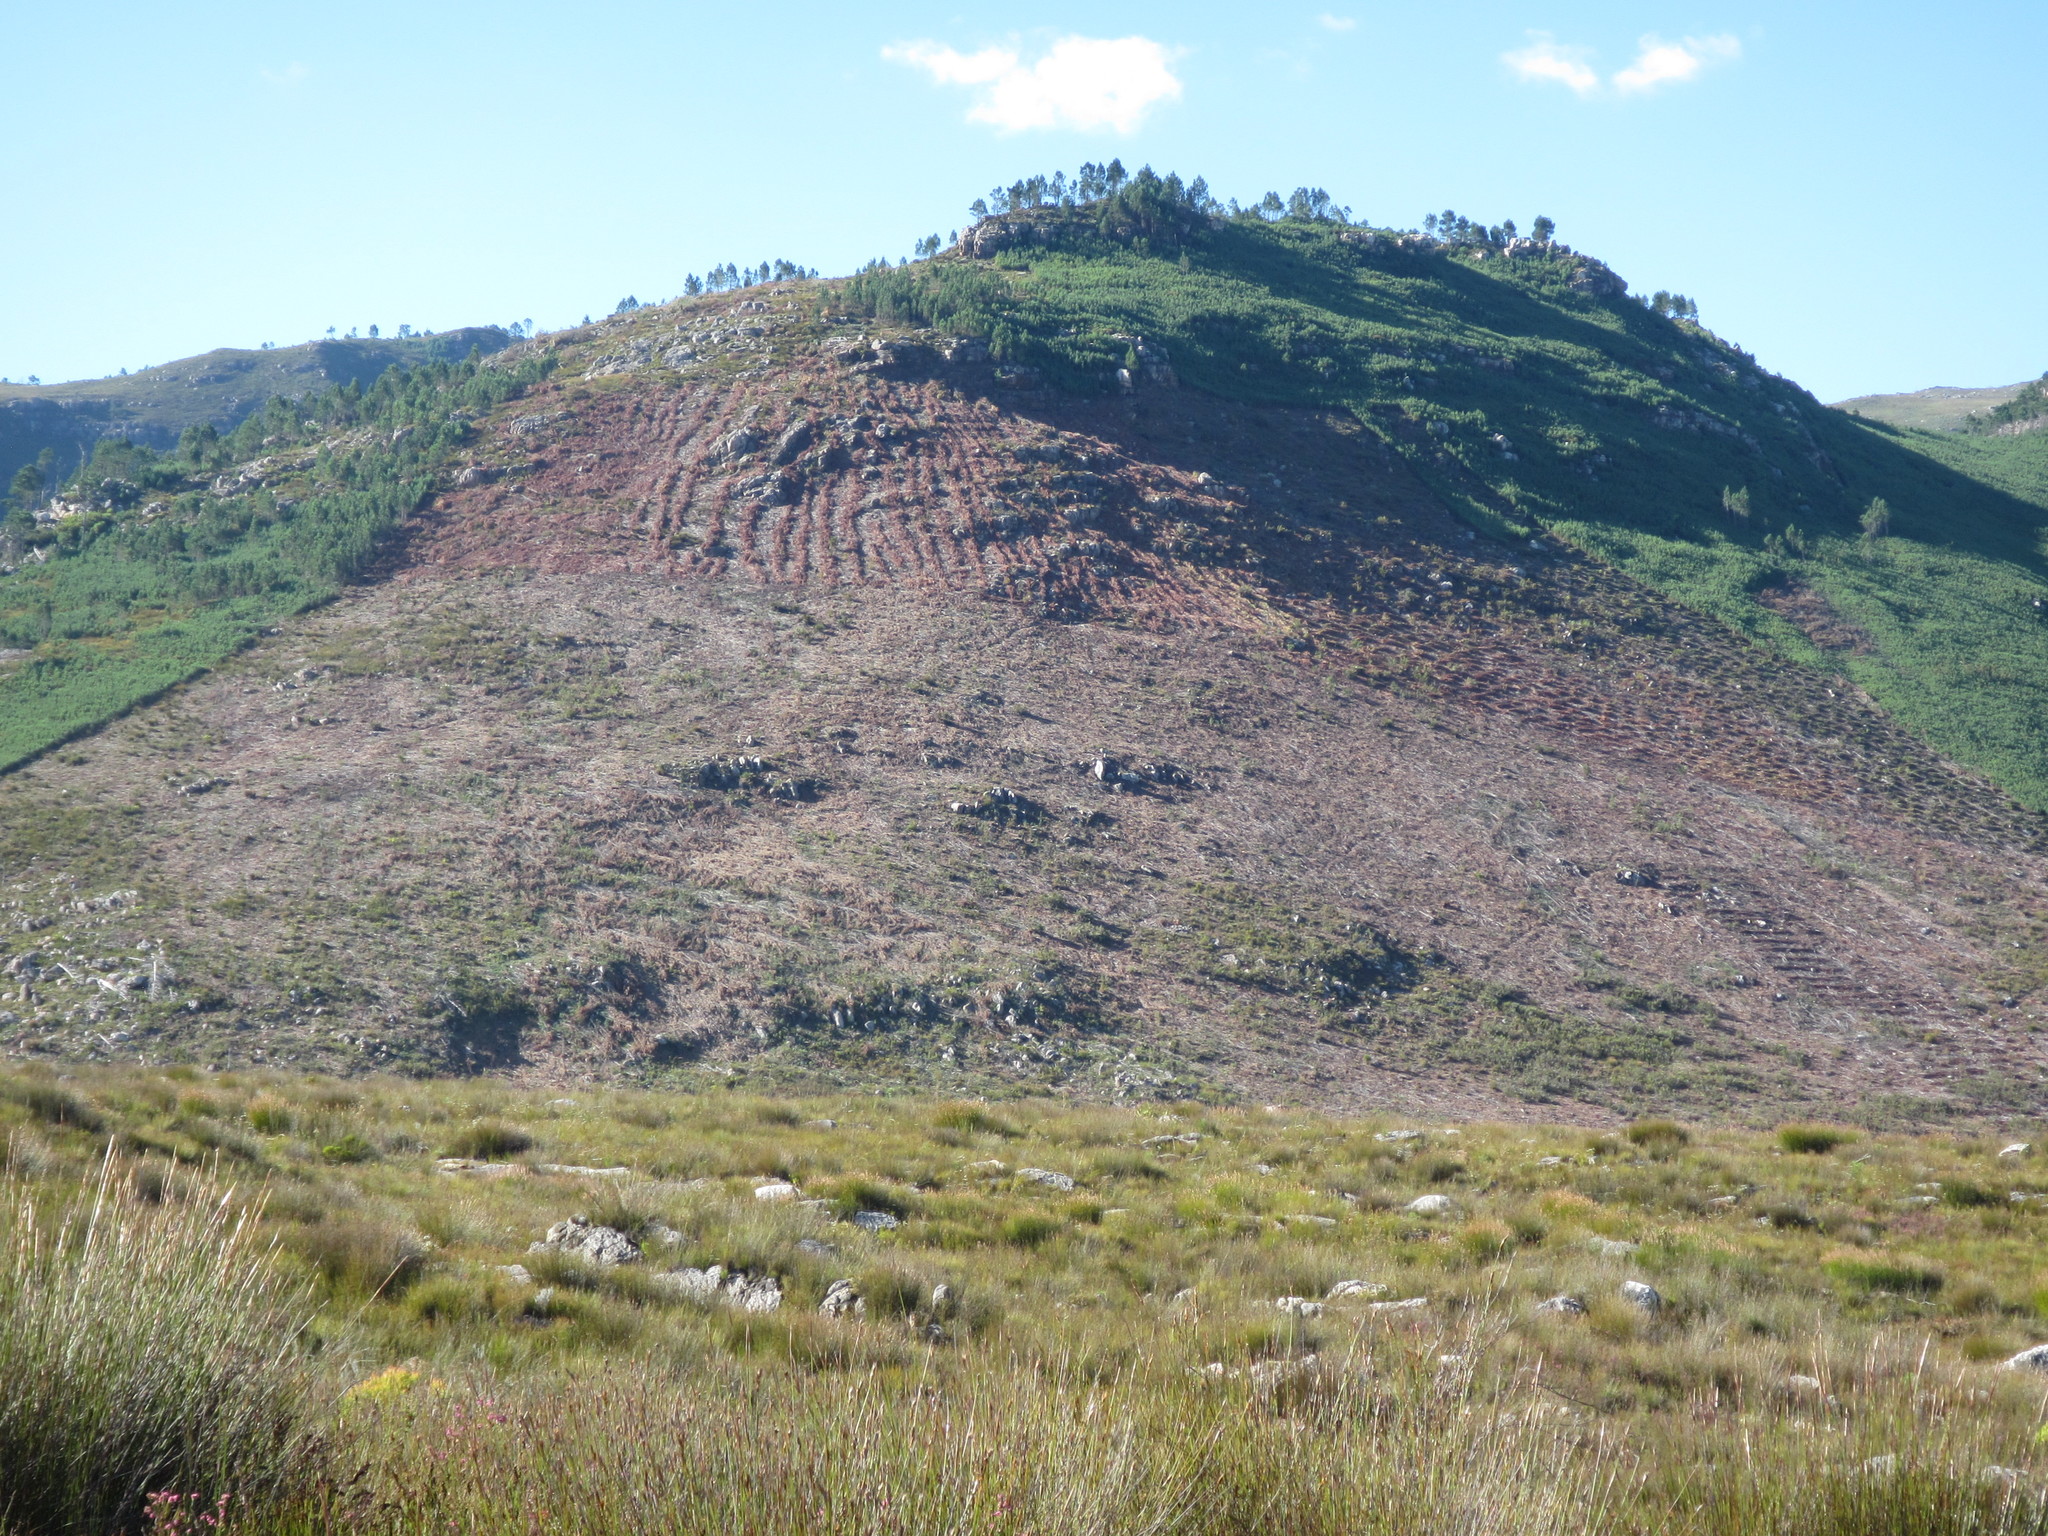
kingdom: Plantae
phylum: Tracheophyta
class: Pinopsida
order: Pinales
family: Pinaceae
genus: Pinus
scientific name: Pinus pinaster
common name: Maritime pine
